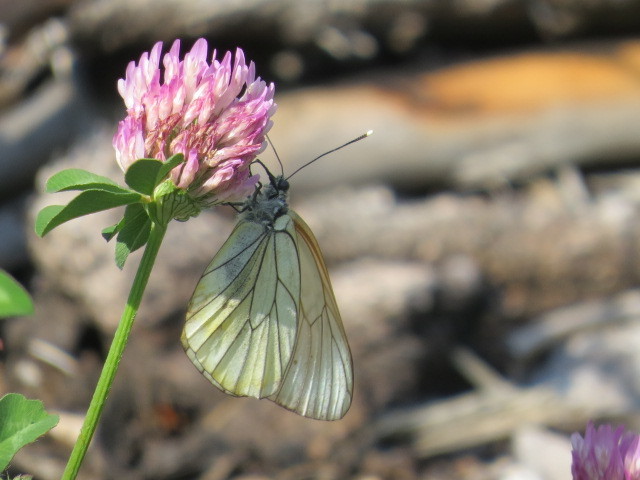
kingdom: Animalia
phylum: Arthropoda
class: Insecta
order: Lepidoptera
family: Pieridae
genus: Aporia
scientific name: Aporia crataegi
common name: Black-veined white
